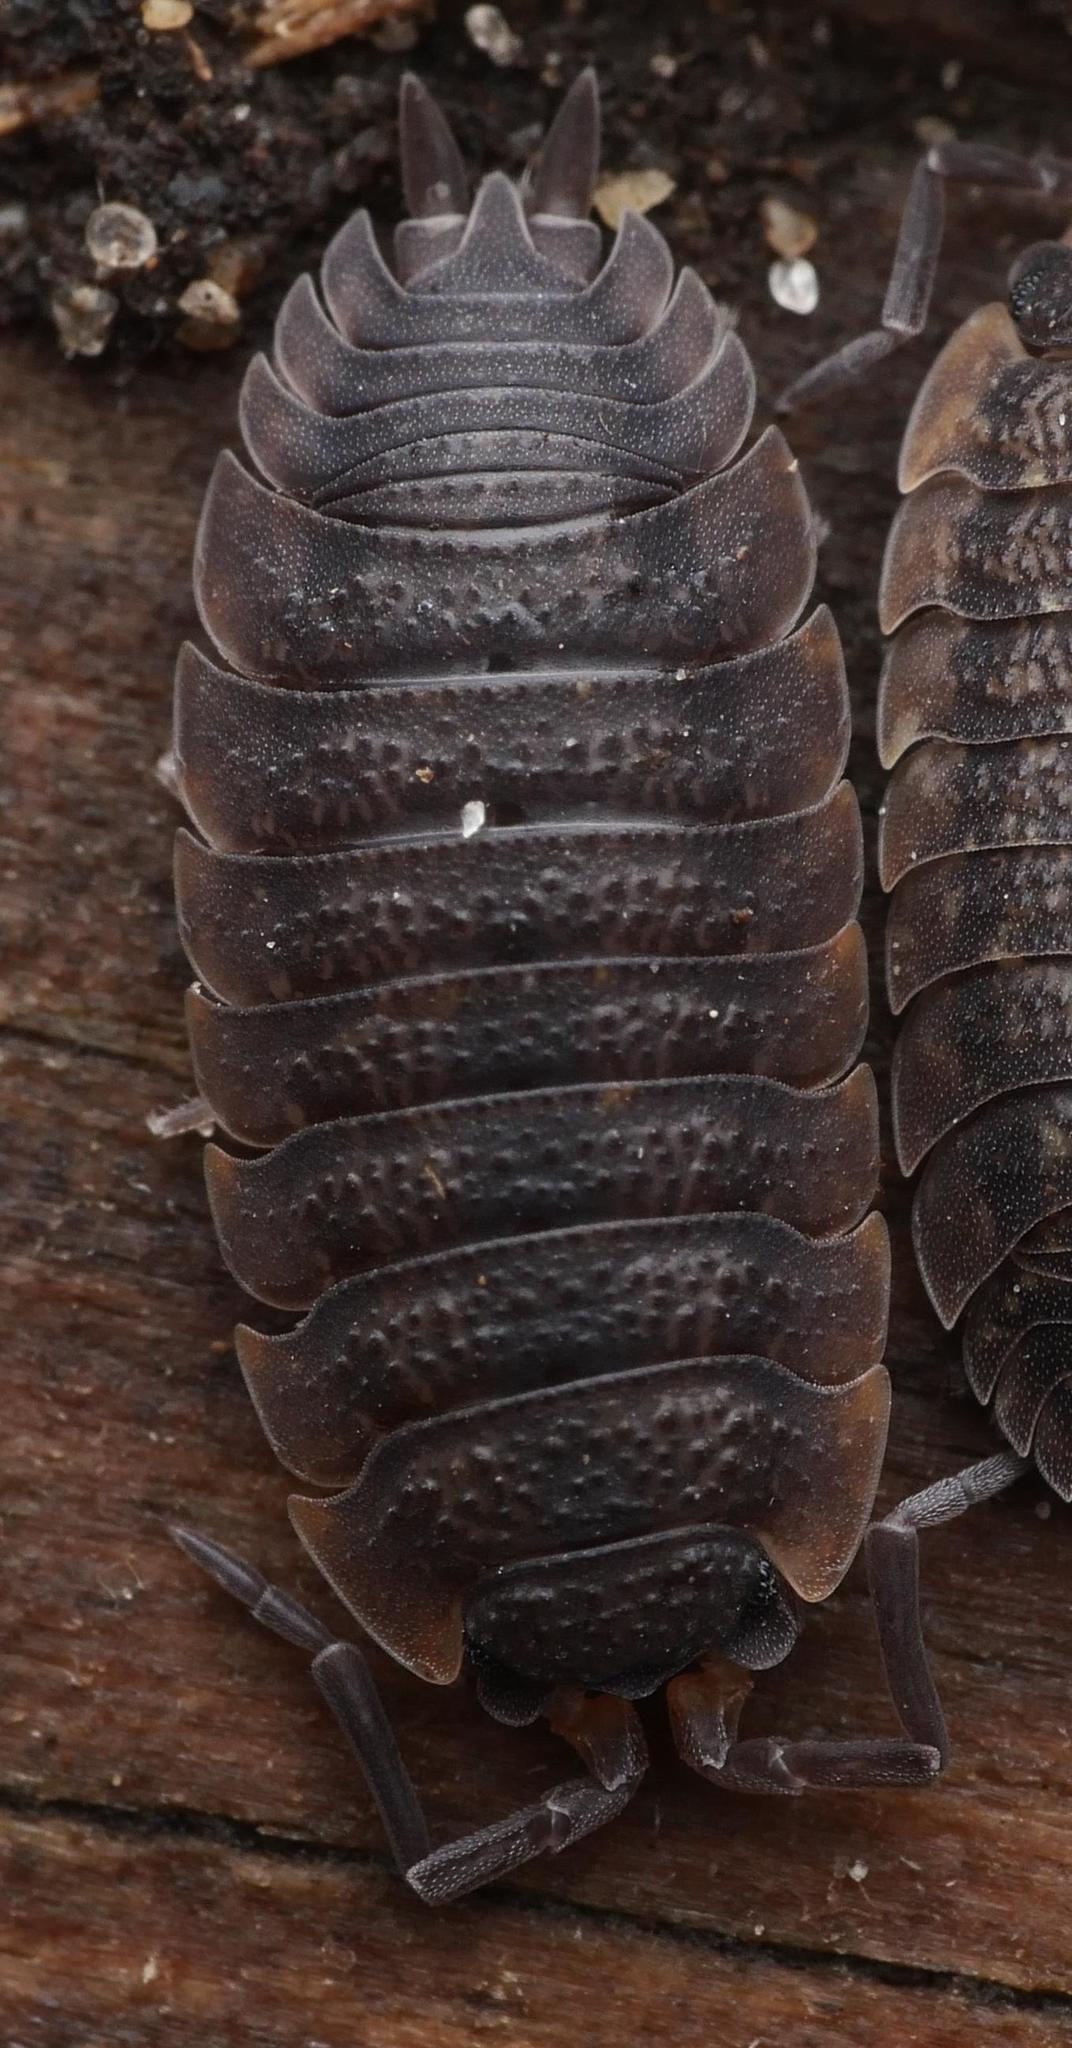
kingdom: Animalia
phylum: Arthropoda
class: Malacostraca
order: Isopoda
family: Porcellionidae
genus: Porcellio
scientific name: Porcellio scaber
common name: Common rough woodlouse
